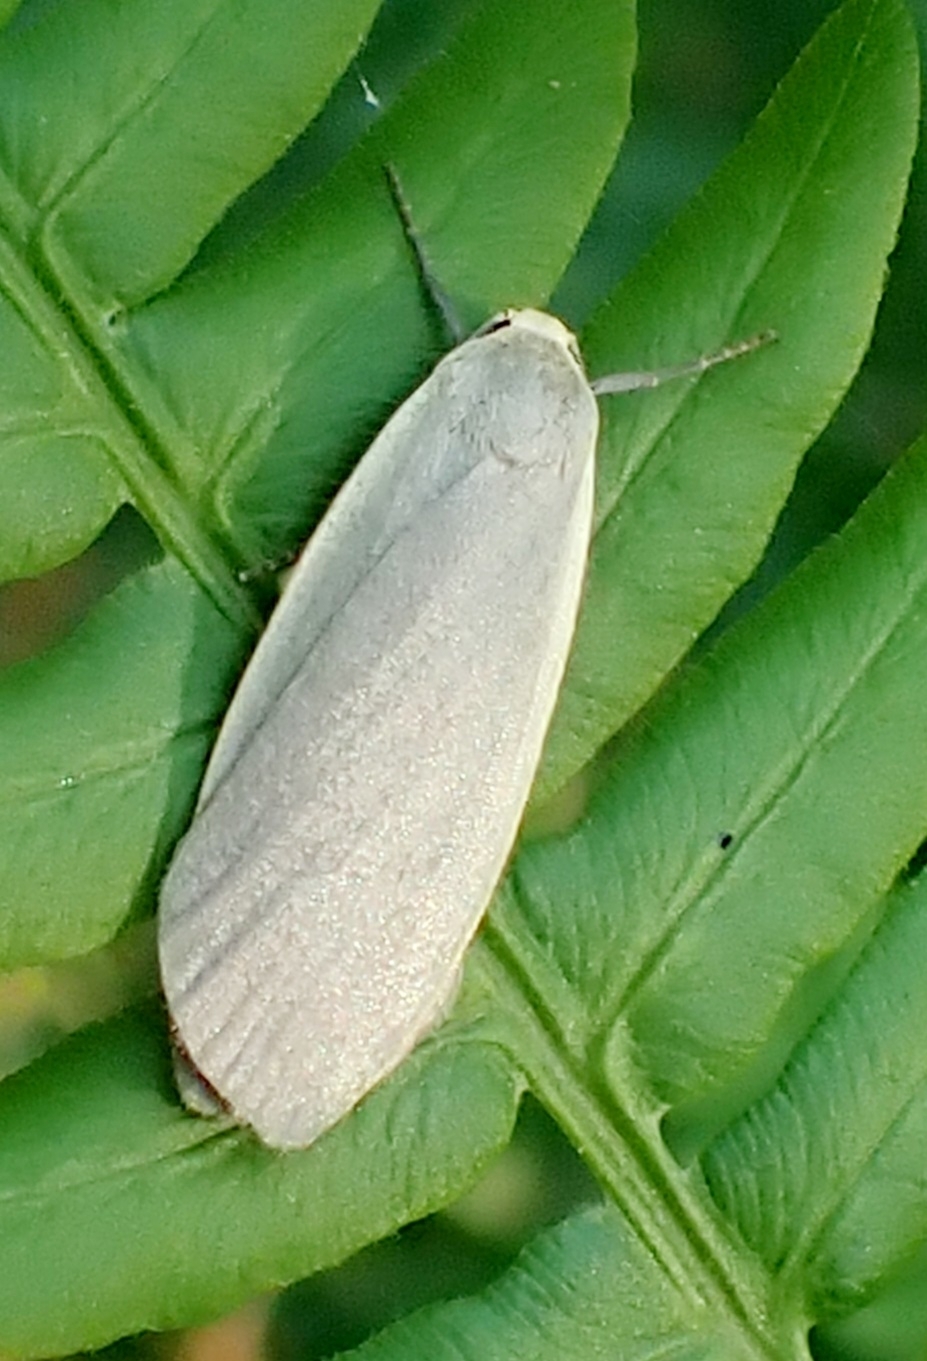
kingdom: Animalia
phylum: Arthropoda
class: Insecta
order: Lepidoptera
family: Erebidae
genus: Collita
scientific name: Collita griseola
